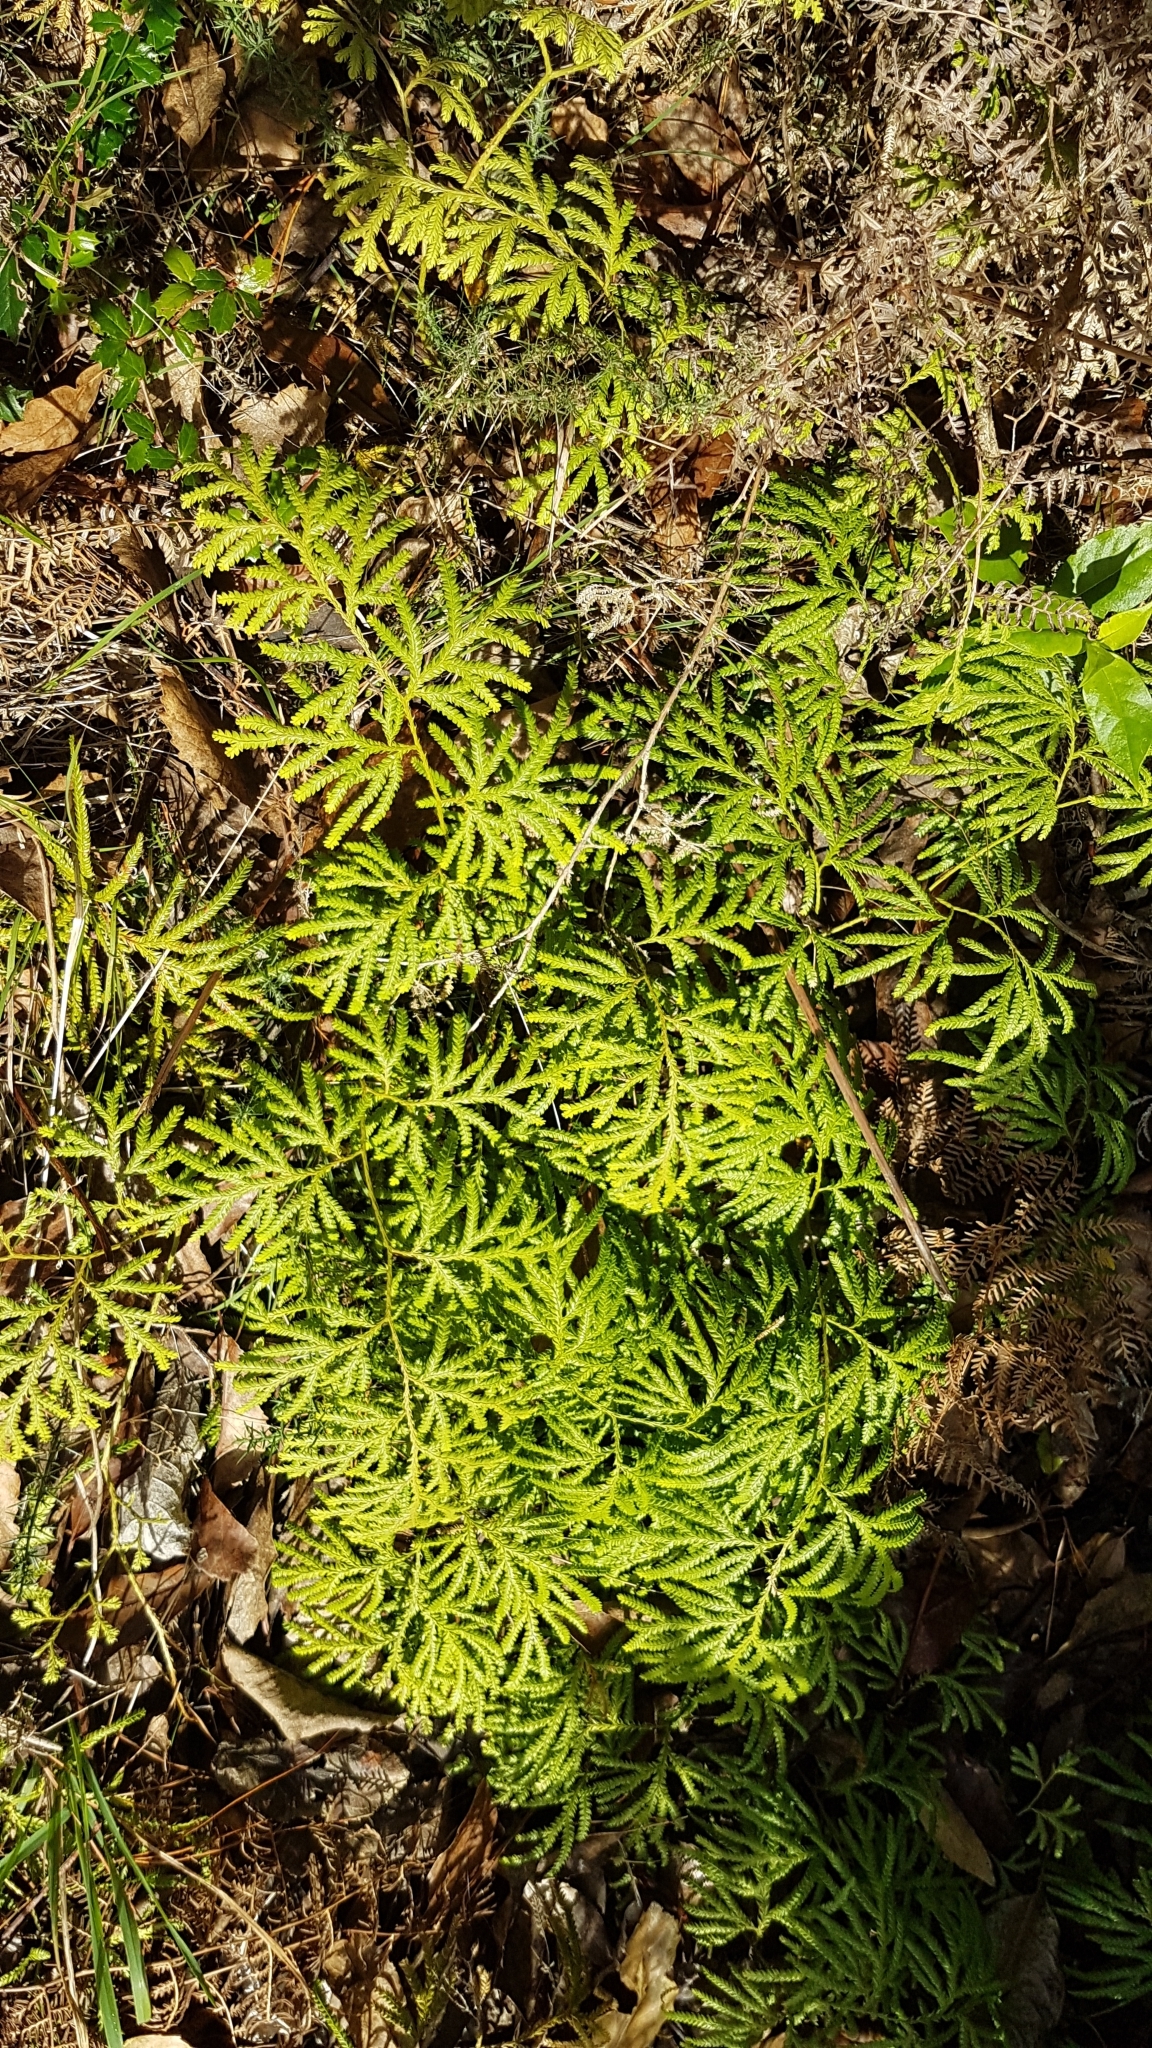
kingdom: Plantae
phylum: Tracheophyta
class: Lycopodiopsida
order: Lycopodiales
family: Lycopodiaceae
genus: Lycopodium
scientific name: Lycopodium volubile
